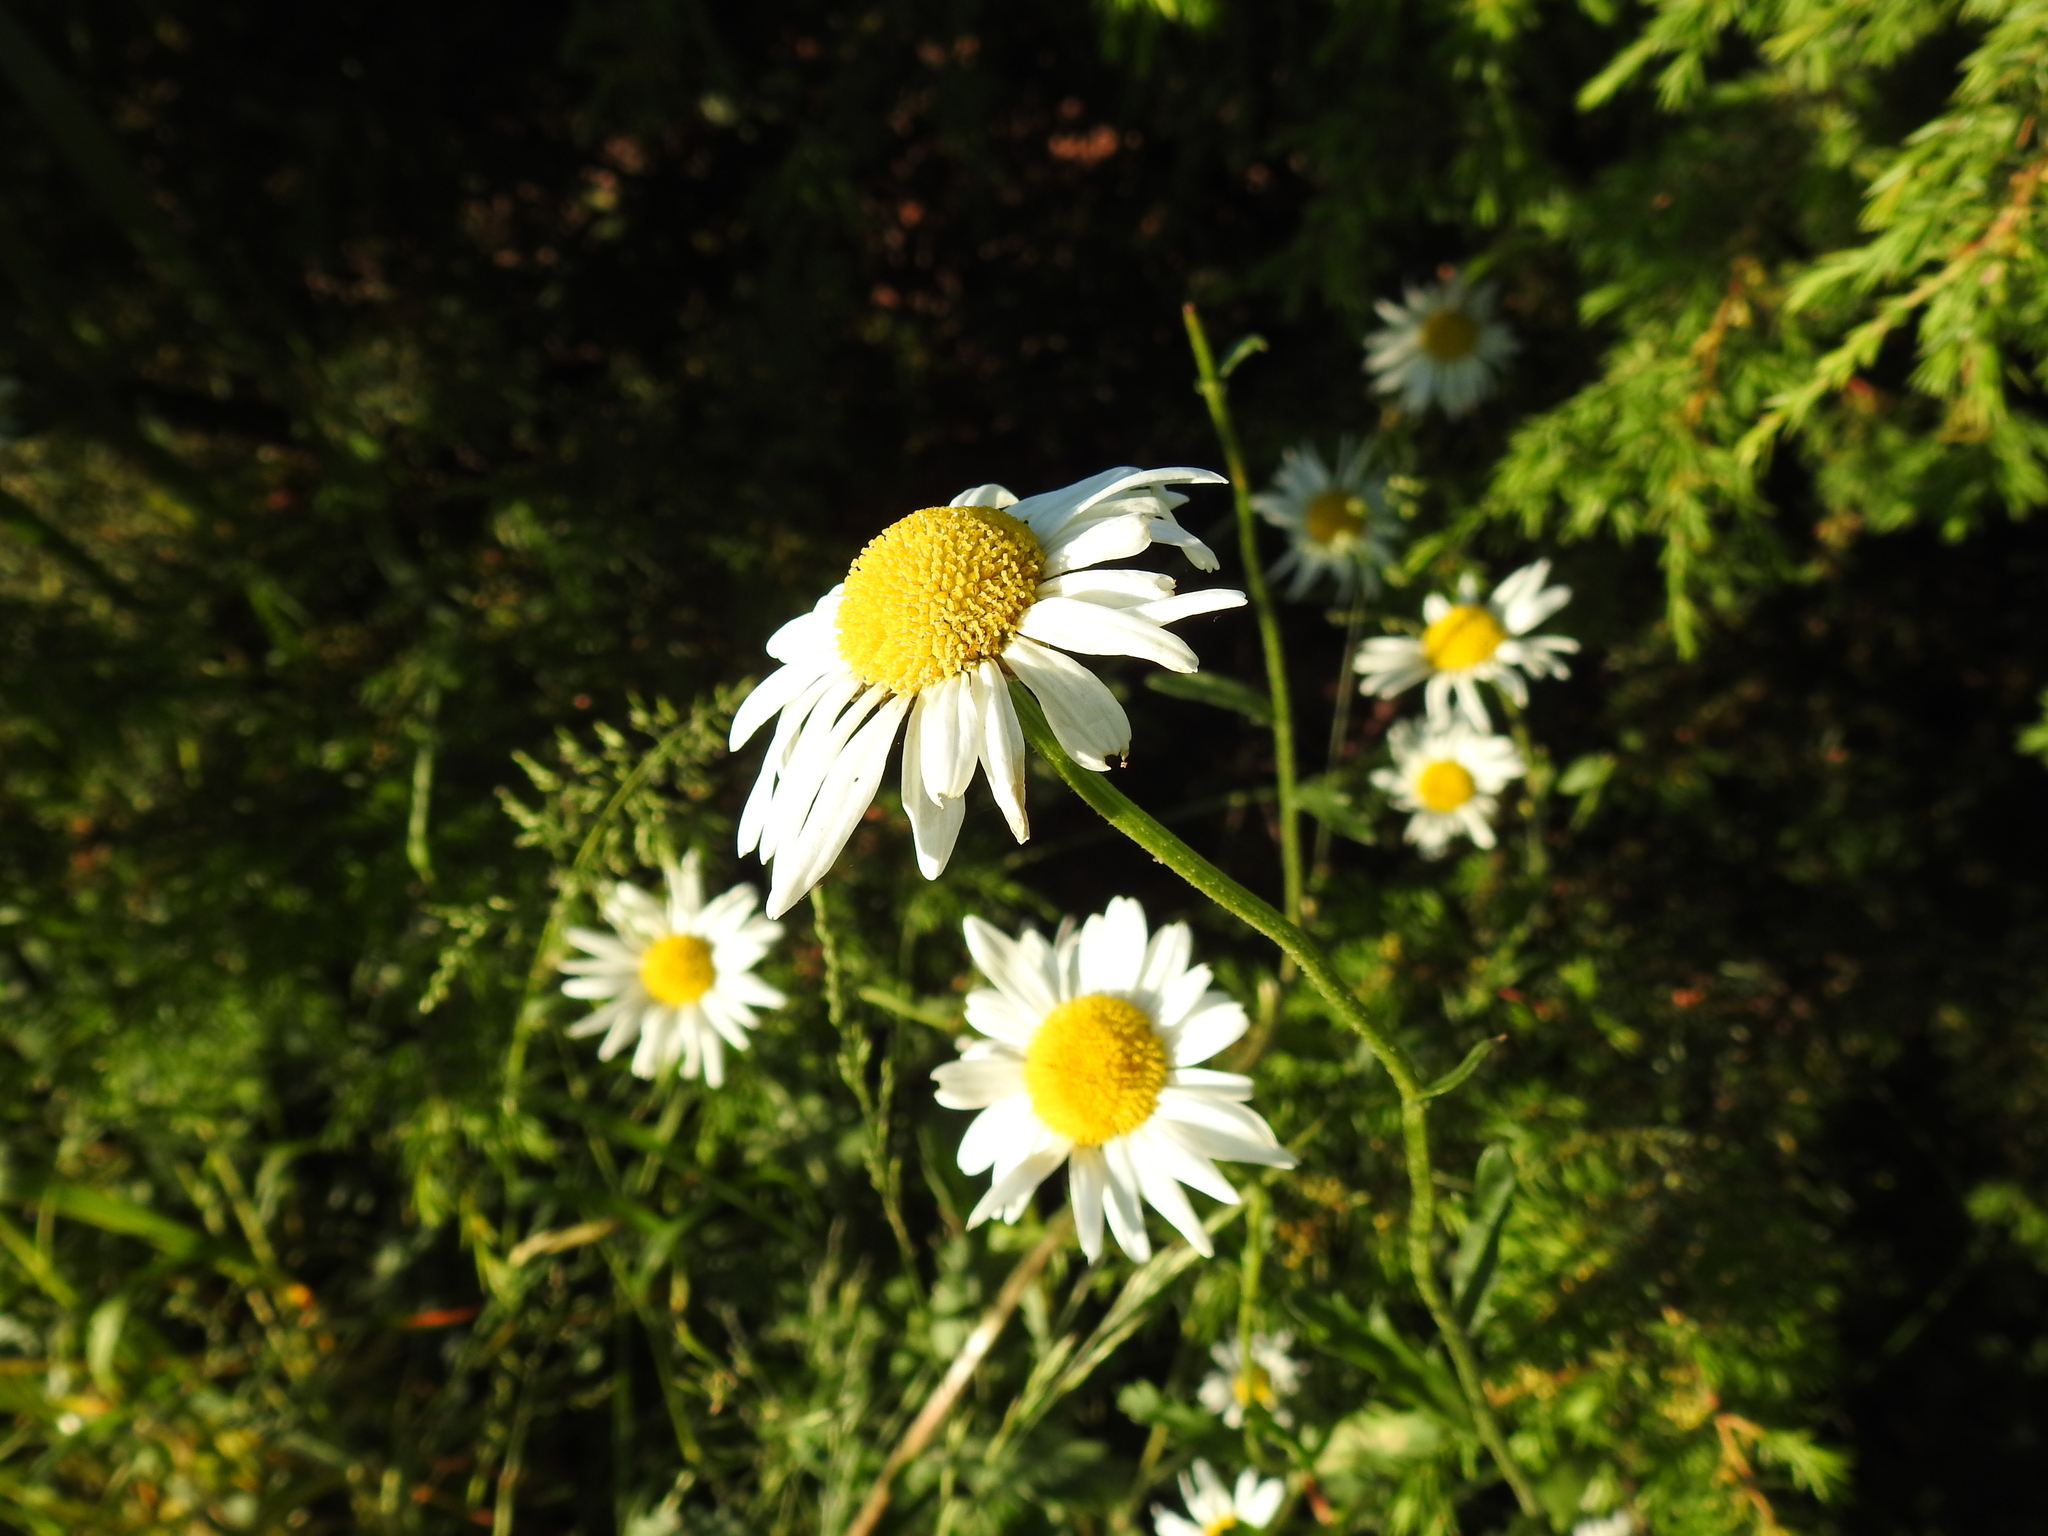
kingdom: Plantae
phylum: Tracheophyta
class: Magnoliopsida
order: Asterales
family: Asteraceae
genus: Tripleurospermum
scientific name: Tripleurospermum inodorum
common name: Scentless mayweed
